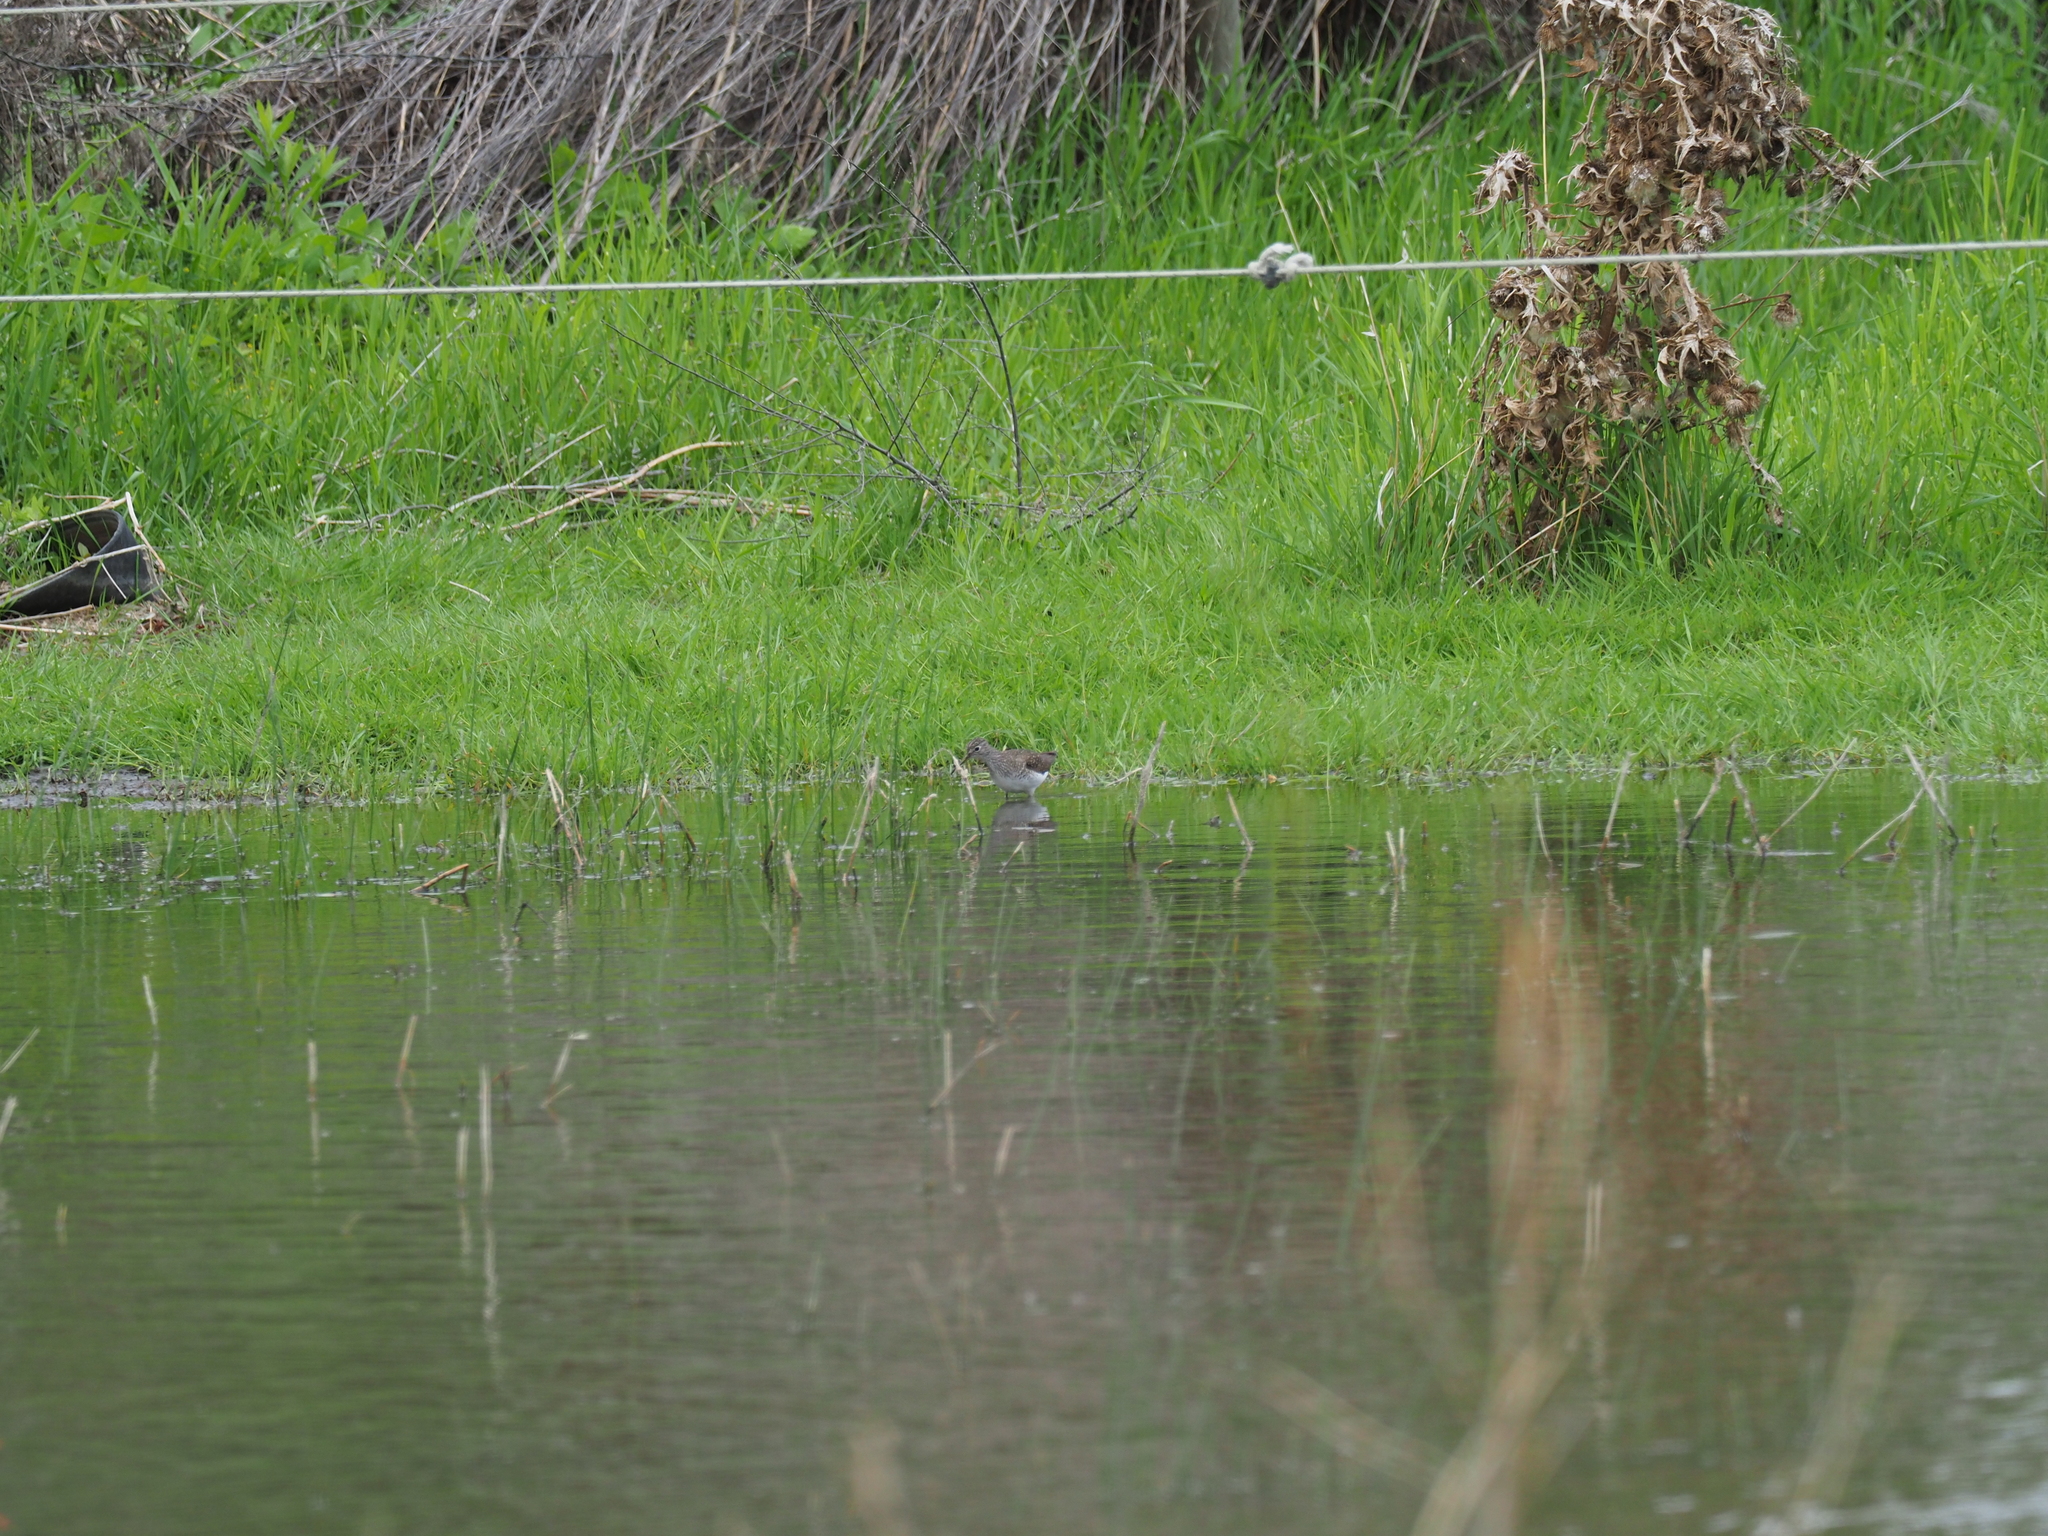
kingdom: Animalia
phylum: Chordata
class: Aves
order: Charadriiformes
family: Scolopacidae
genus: Tringa
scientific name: Tringa solitaria
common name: Solitary sandpiper
